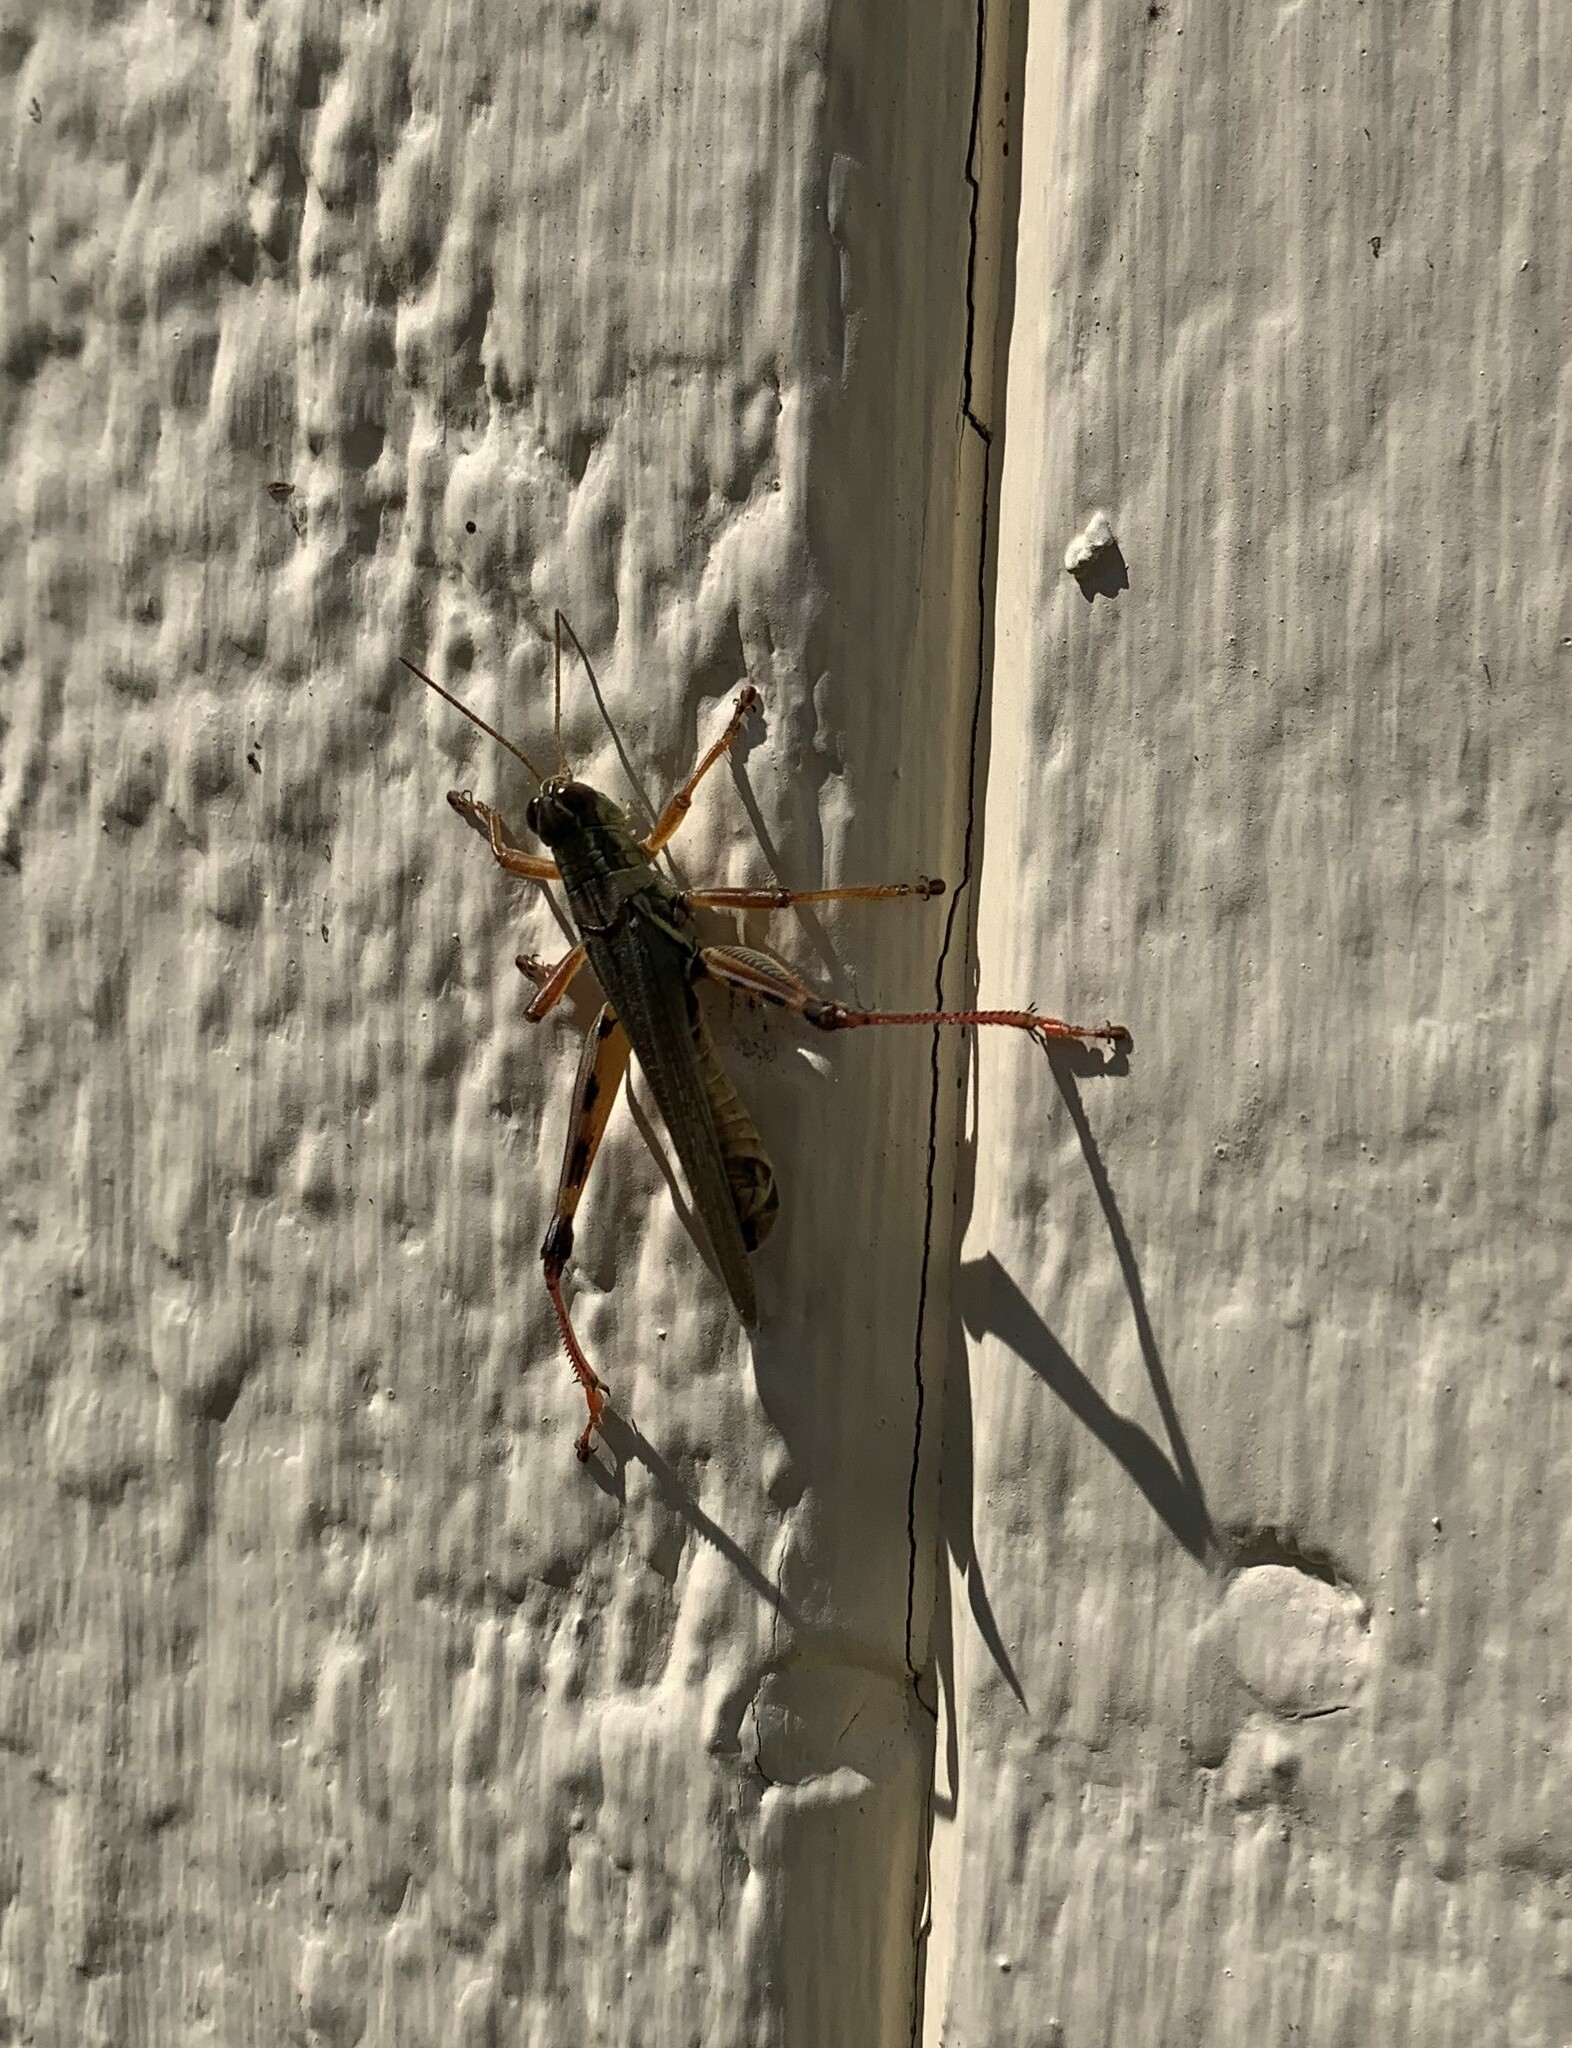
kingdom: Animalia
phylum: Arthropoda
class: Insecta
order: Orthoptera
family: Acrididae
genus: Melanoplus
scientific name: Melanoplus femurrubrum
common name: Red-legged grasshopper
